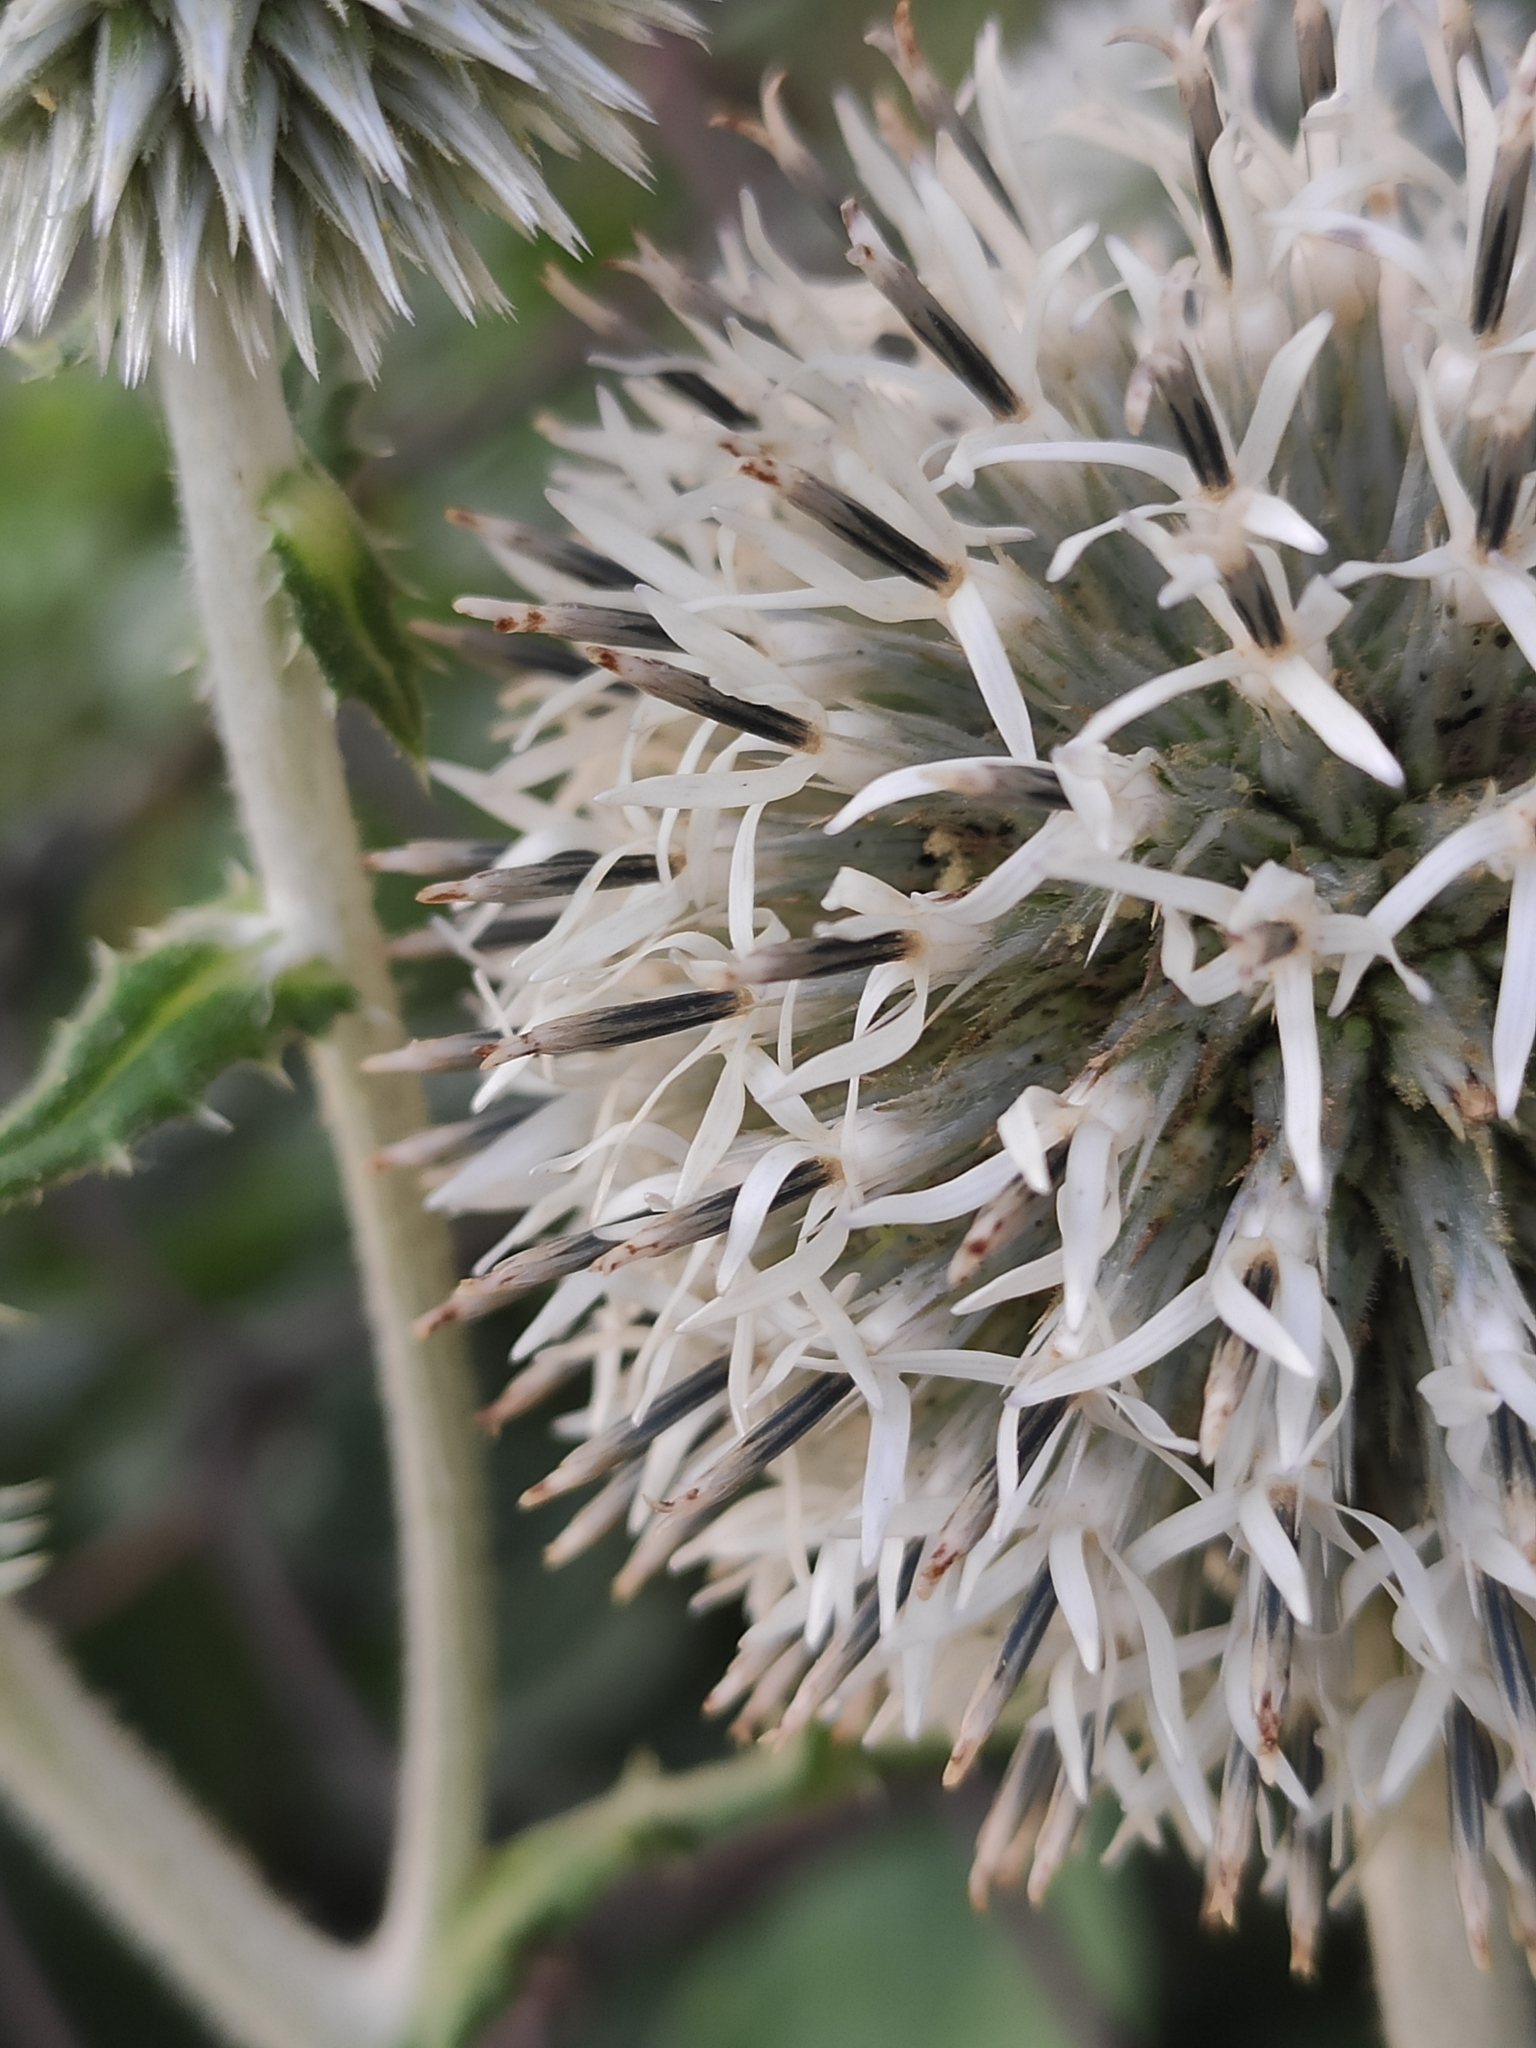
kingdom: Plantae
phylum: Tracheophyta
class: Magnoliopsida
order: Asterales
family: Asteraceae
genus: Echinops
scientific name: Echinops sphaerocephalus
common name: Glandular globe-thistle
